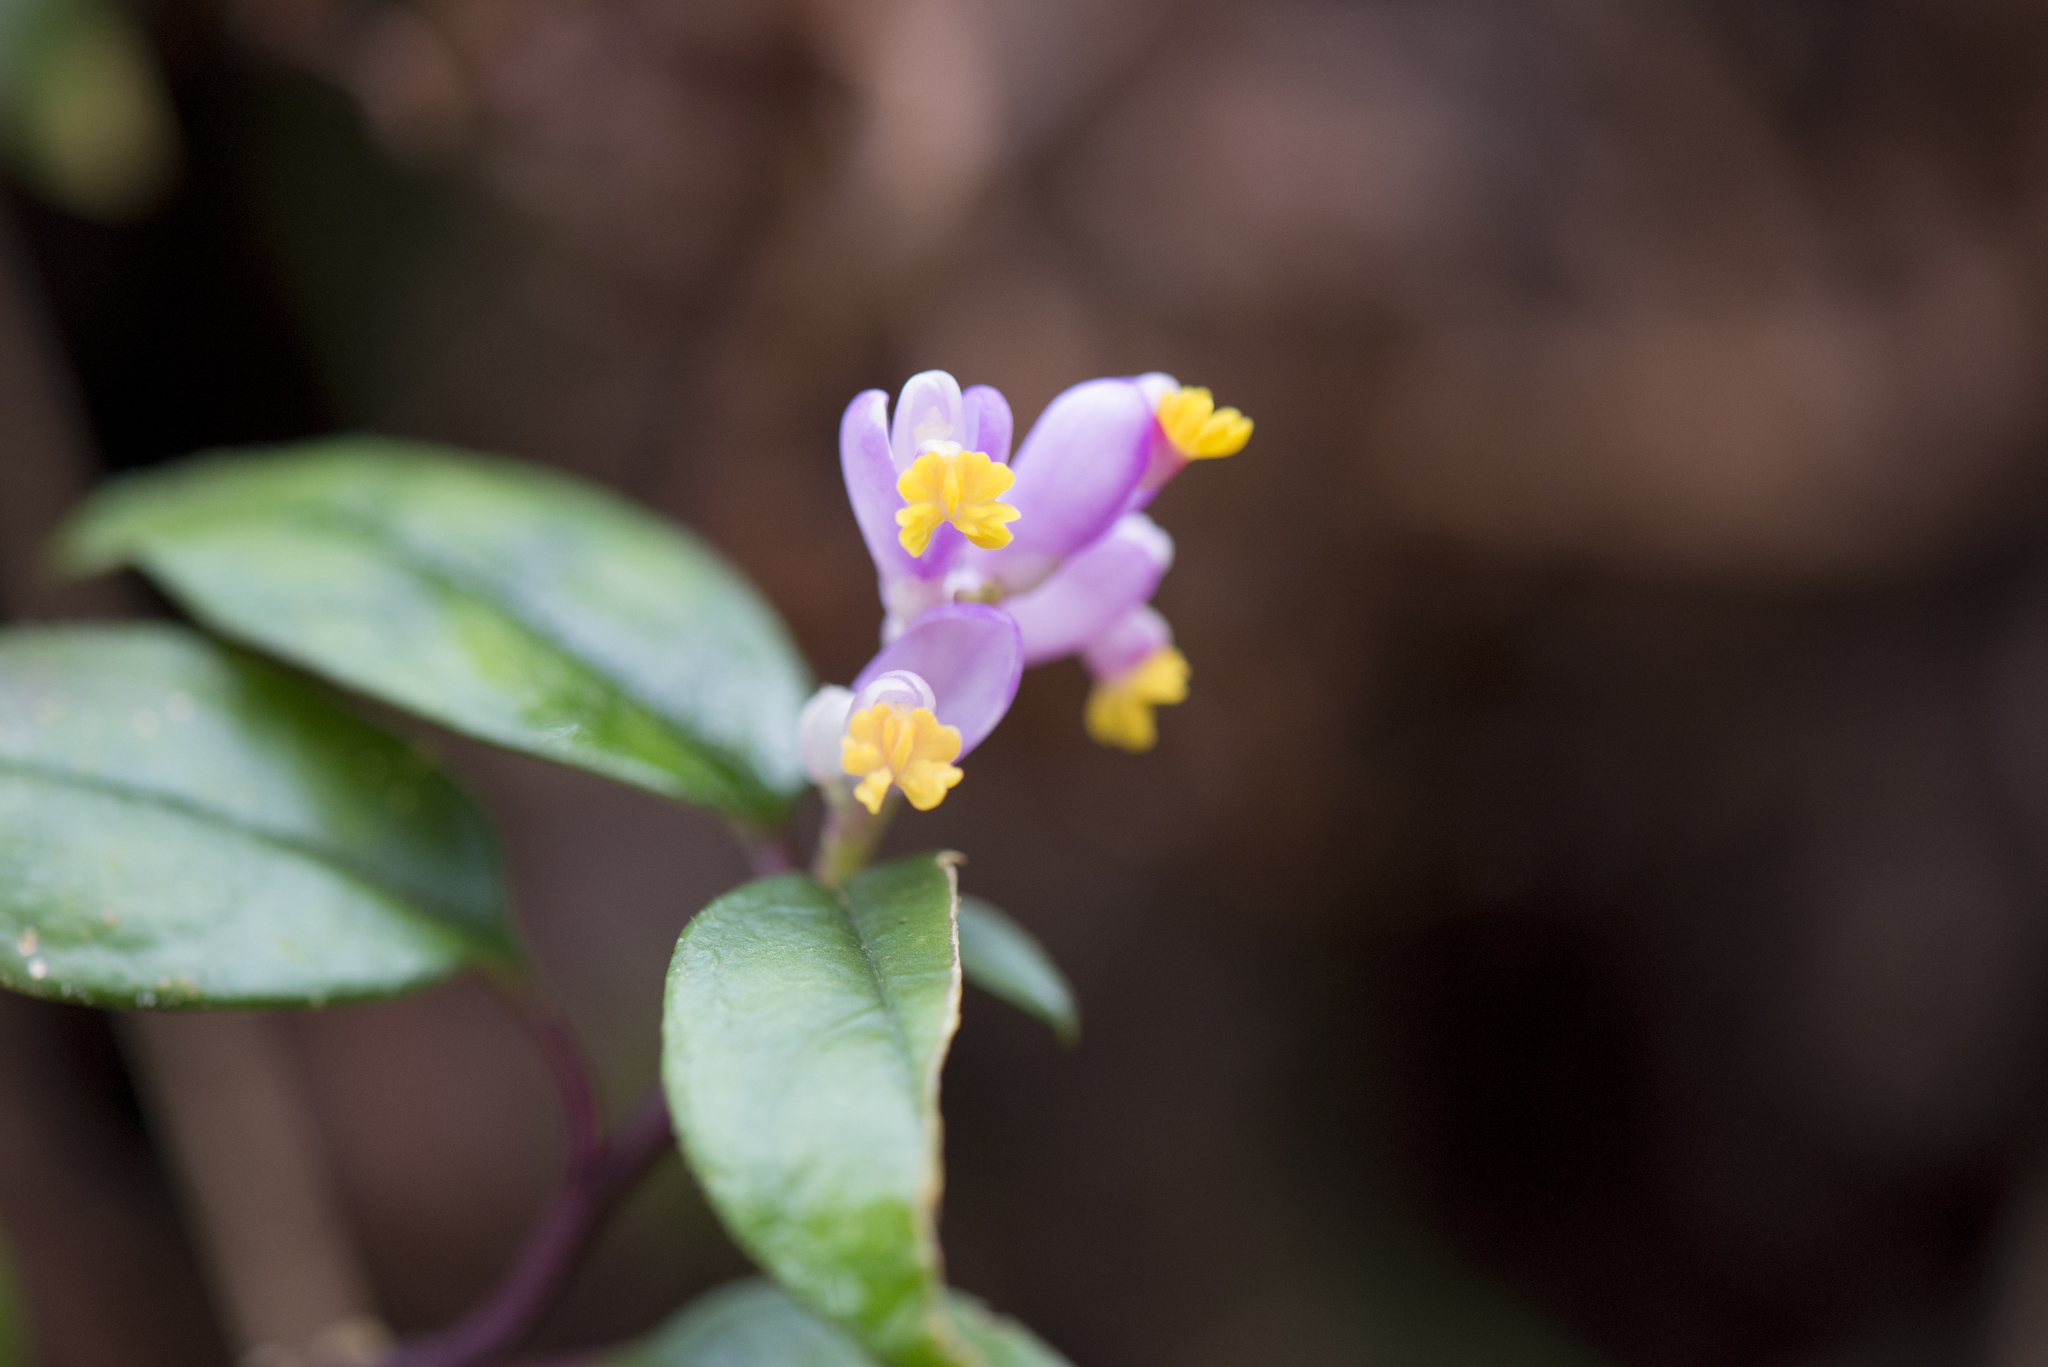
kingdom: Plantae
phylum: Tracheophyta
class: Magnoliopsida
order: Fabales
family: Polygalaceae
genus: Polygala
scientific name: Polygala arcuata
